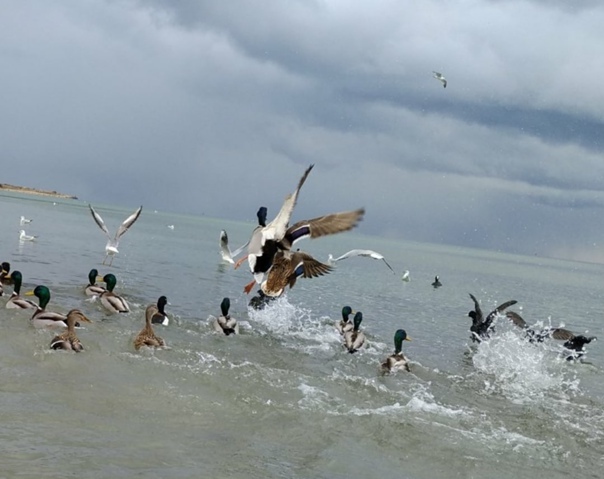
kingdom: Animalia
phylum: Chordata
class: Aves
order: Anseriformes
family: Anatidae
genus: Aythya
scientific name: Aythya fuligula
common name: Tufted duck
